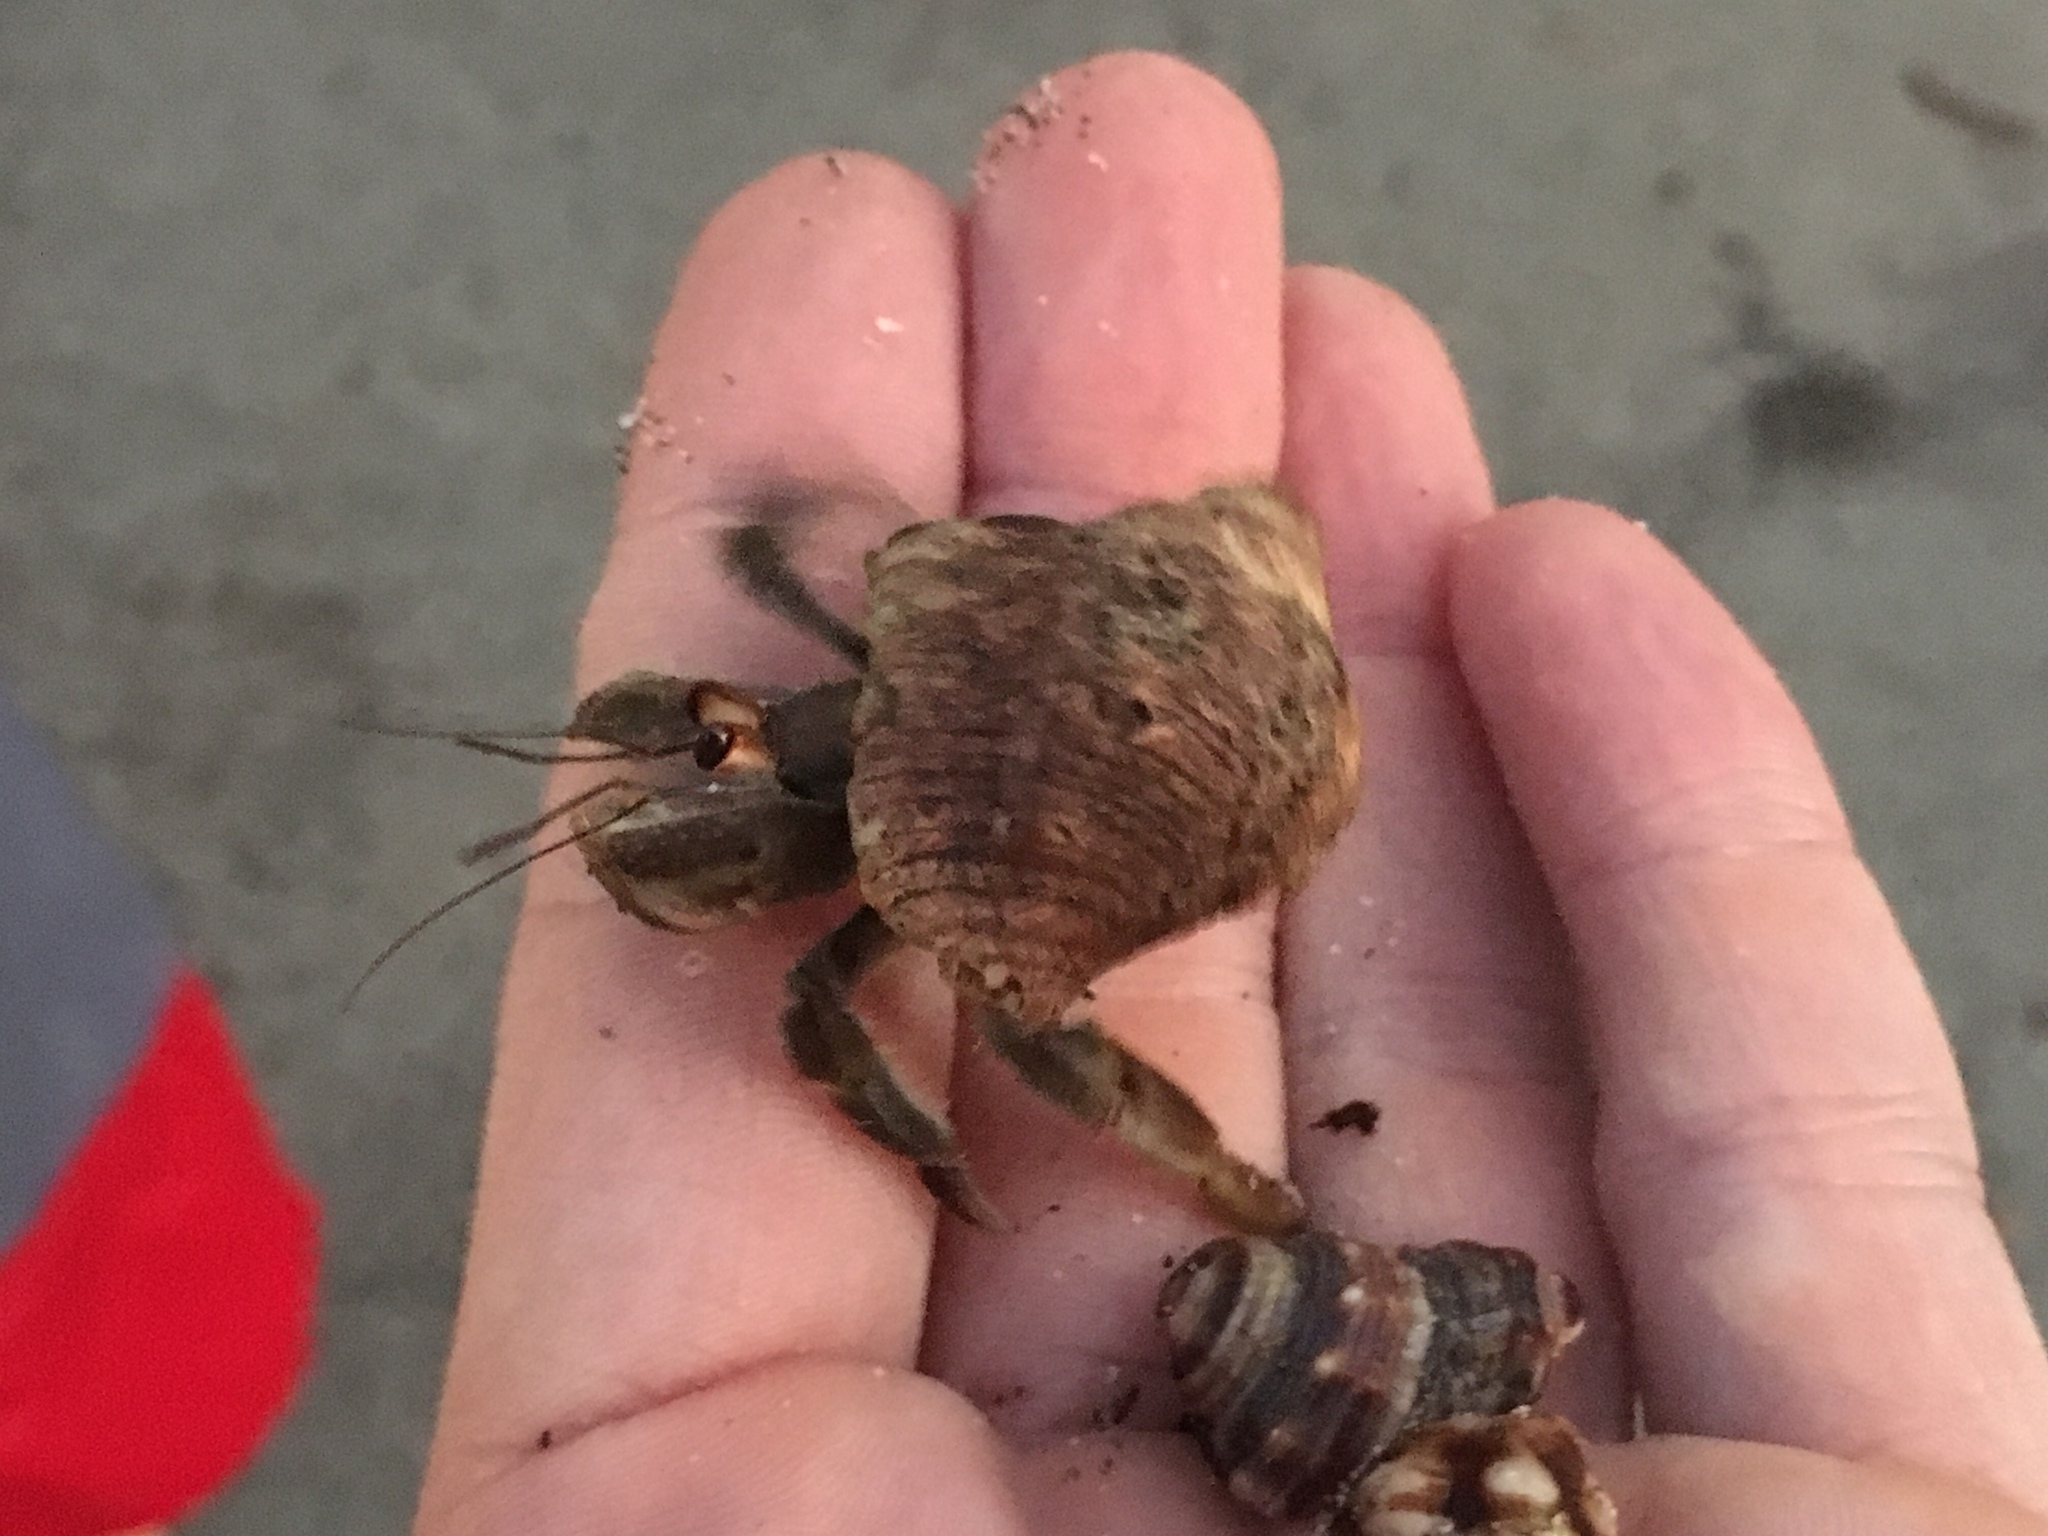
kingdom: Animalia
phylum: Arthropoda
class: Malacostraca
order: Decapoda
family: Coenobitidae
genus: Coenobita
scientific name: Coenobita compressus
